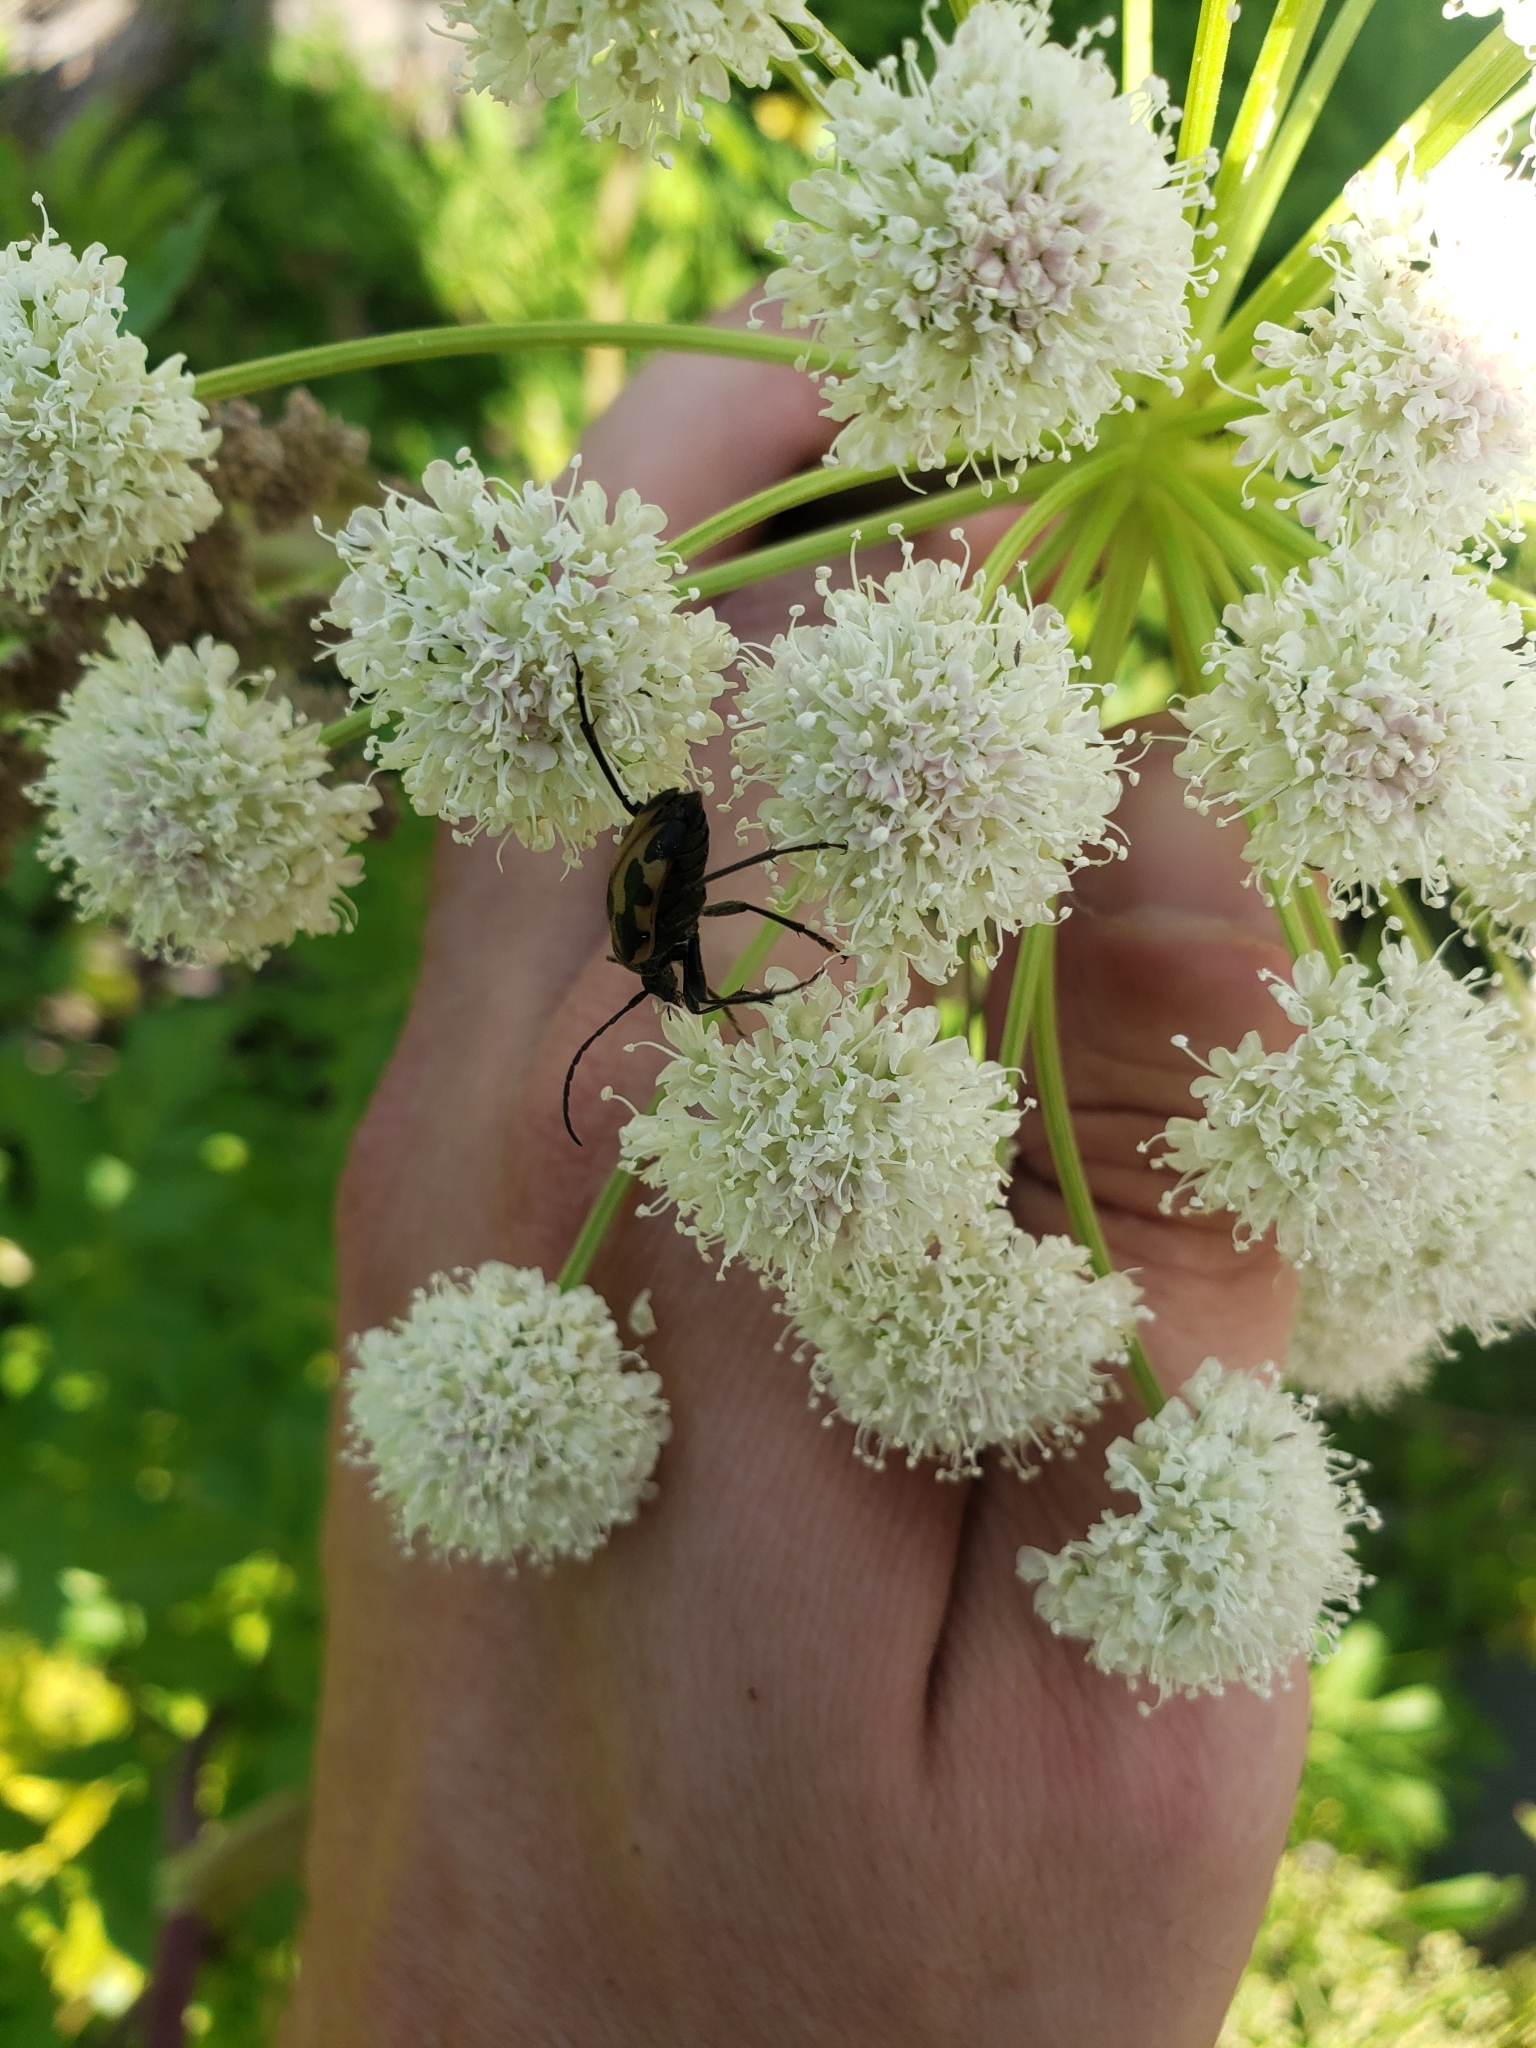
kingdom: Animalia
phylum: Arthropoda
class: Insecta
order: Coleoptera
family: Cerambycidae
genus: Judolia
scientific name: Judolia instabilis
